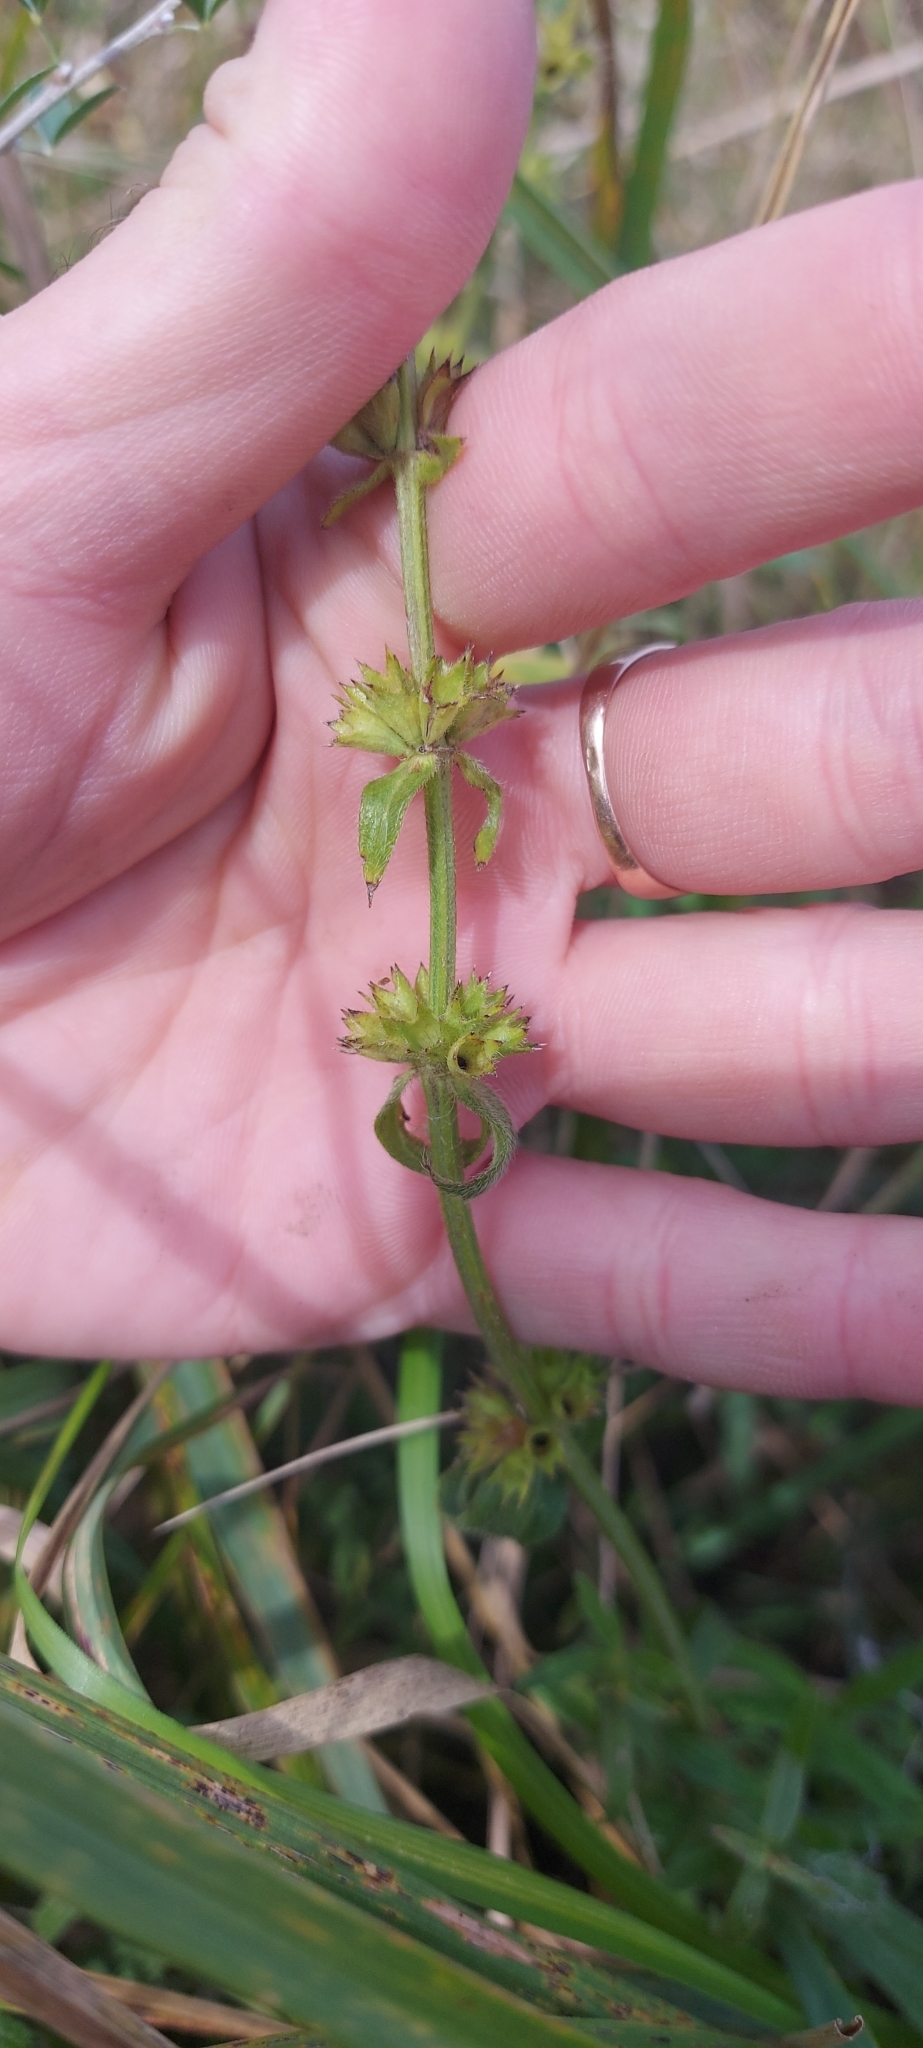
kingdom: Plantae
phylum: Tracheophyta
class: Magnoliopsida
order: Lamiales
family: Lamiaceae
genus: Stachys
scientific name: Stachys recta
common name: Perennial yellow-woundwort
